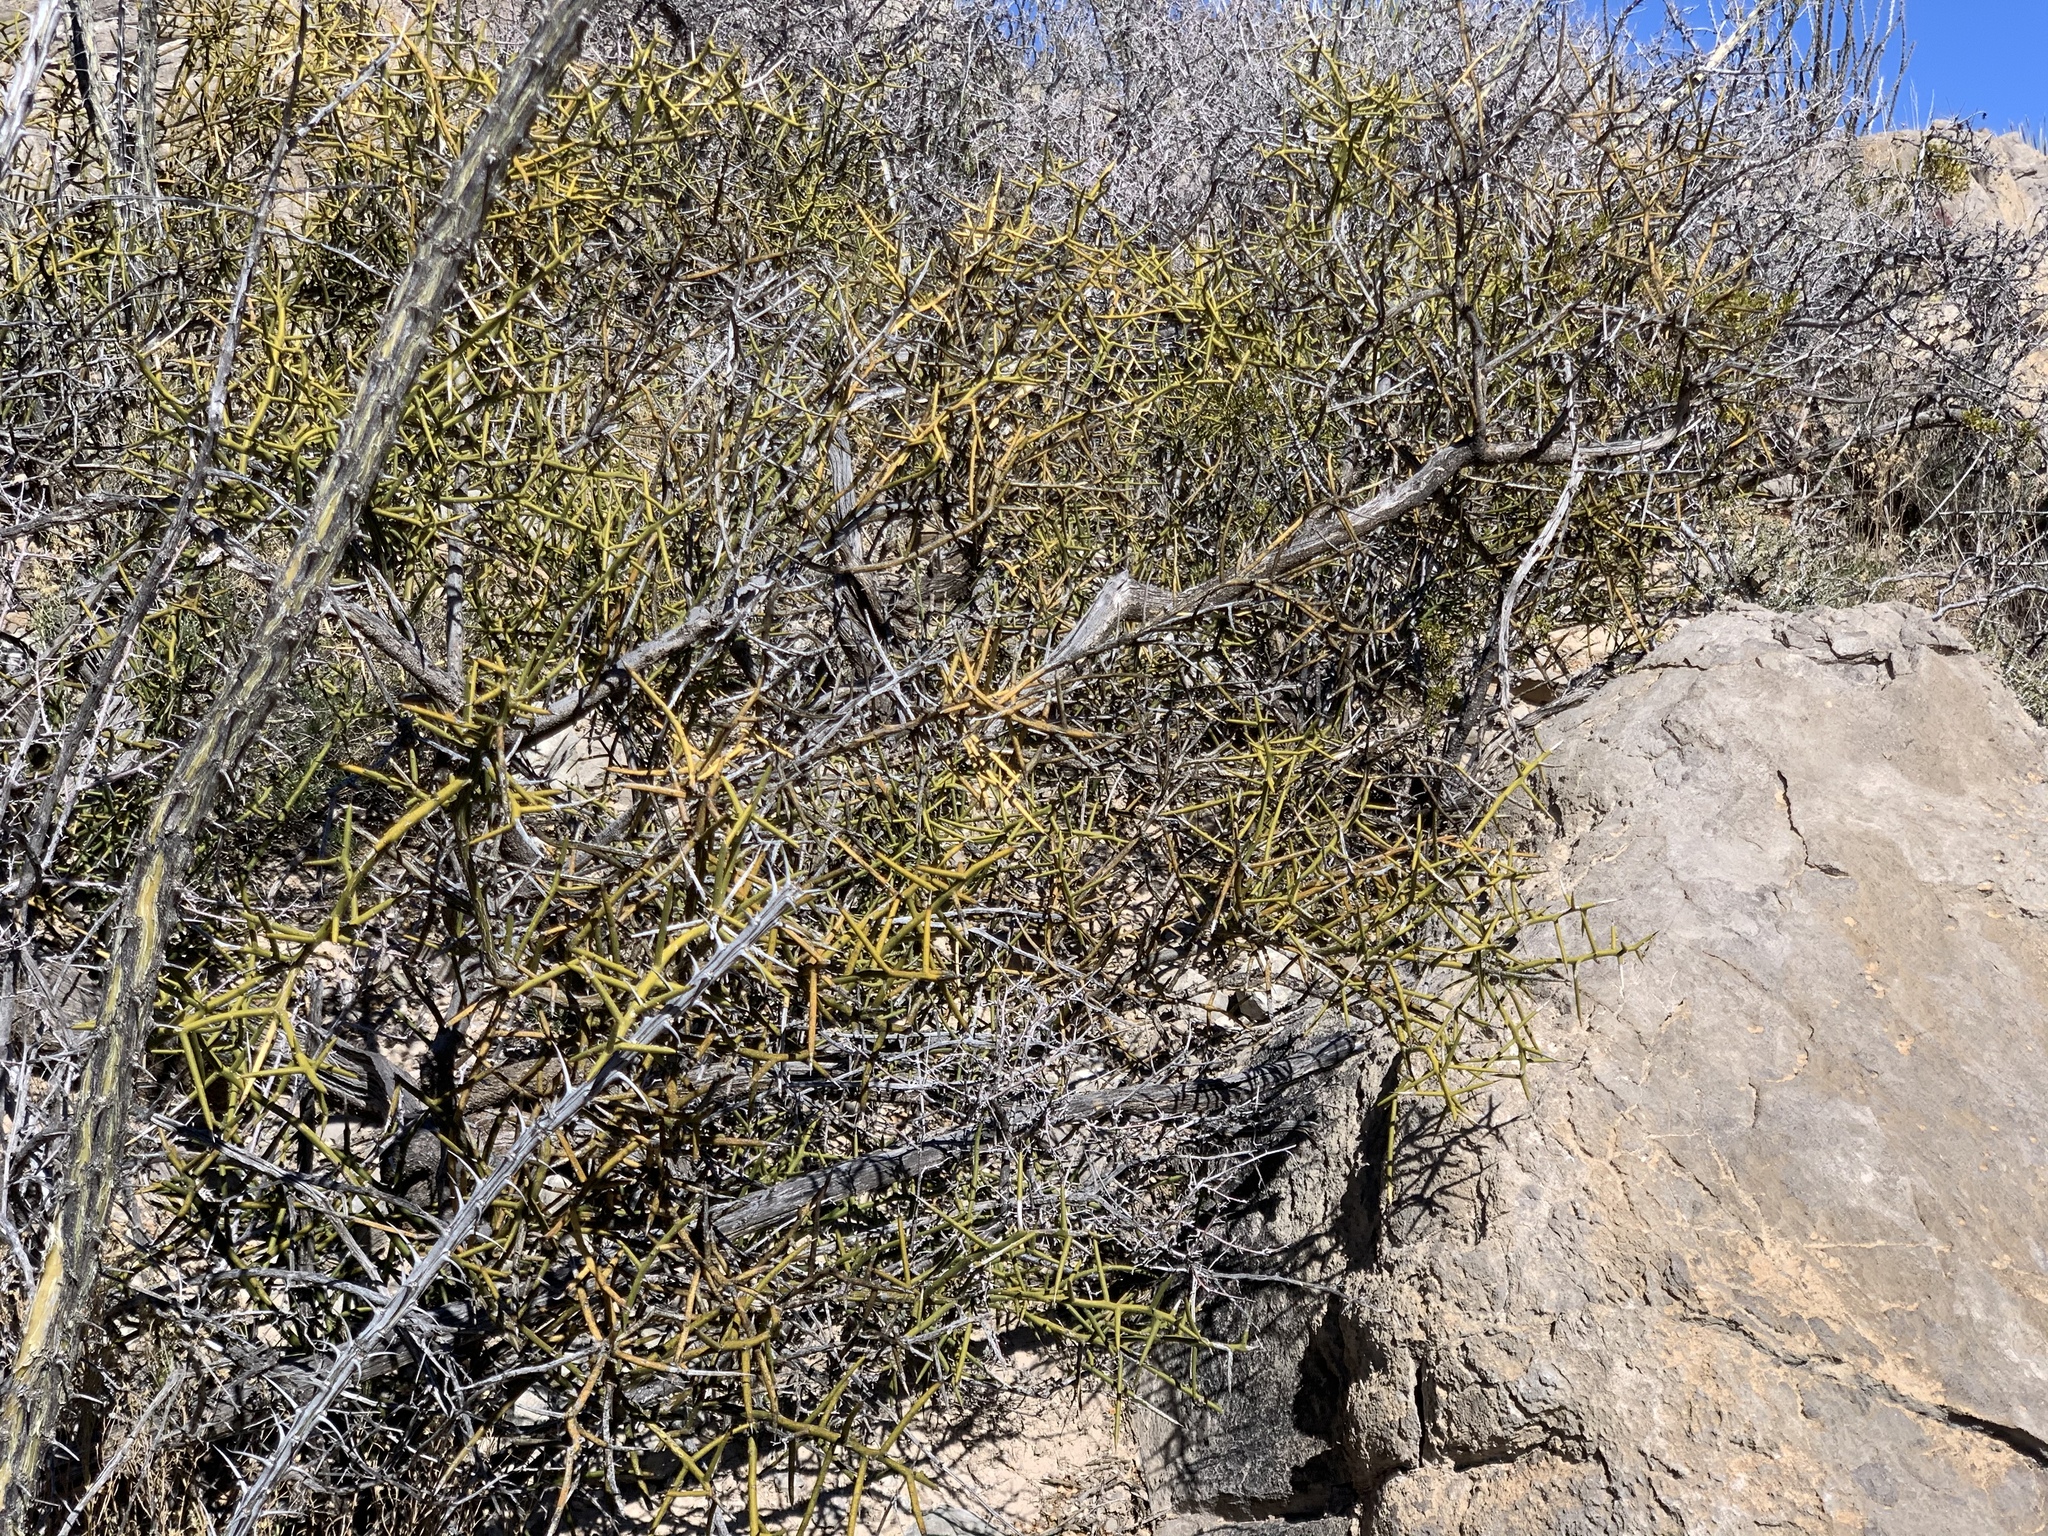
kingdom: Plantae
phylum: Tracheophyta
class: Magnoliopsida
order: Brassicales
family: Koeberliniaceae
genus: Koeberlinia
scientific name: Koeberlinia spinosa
